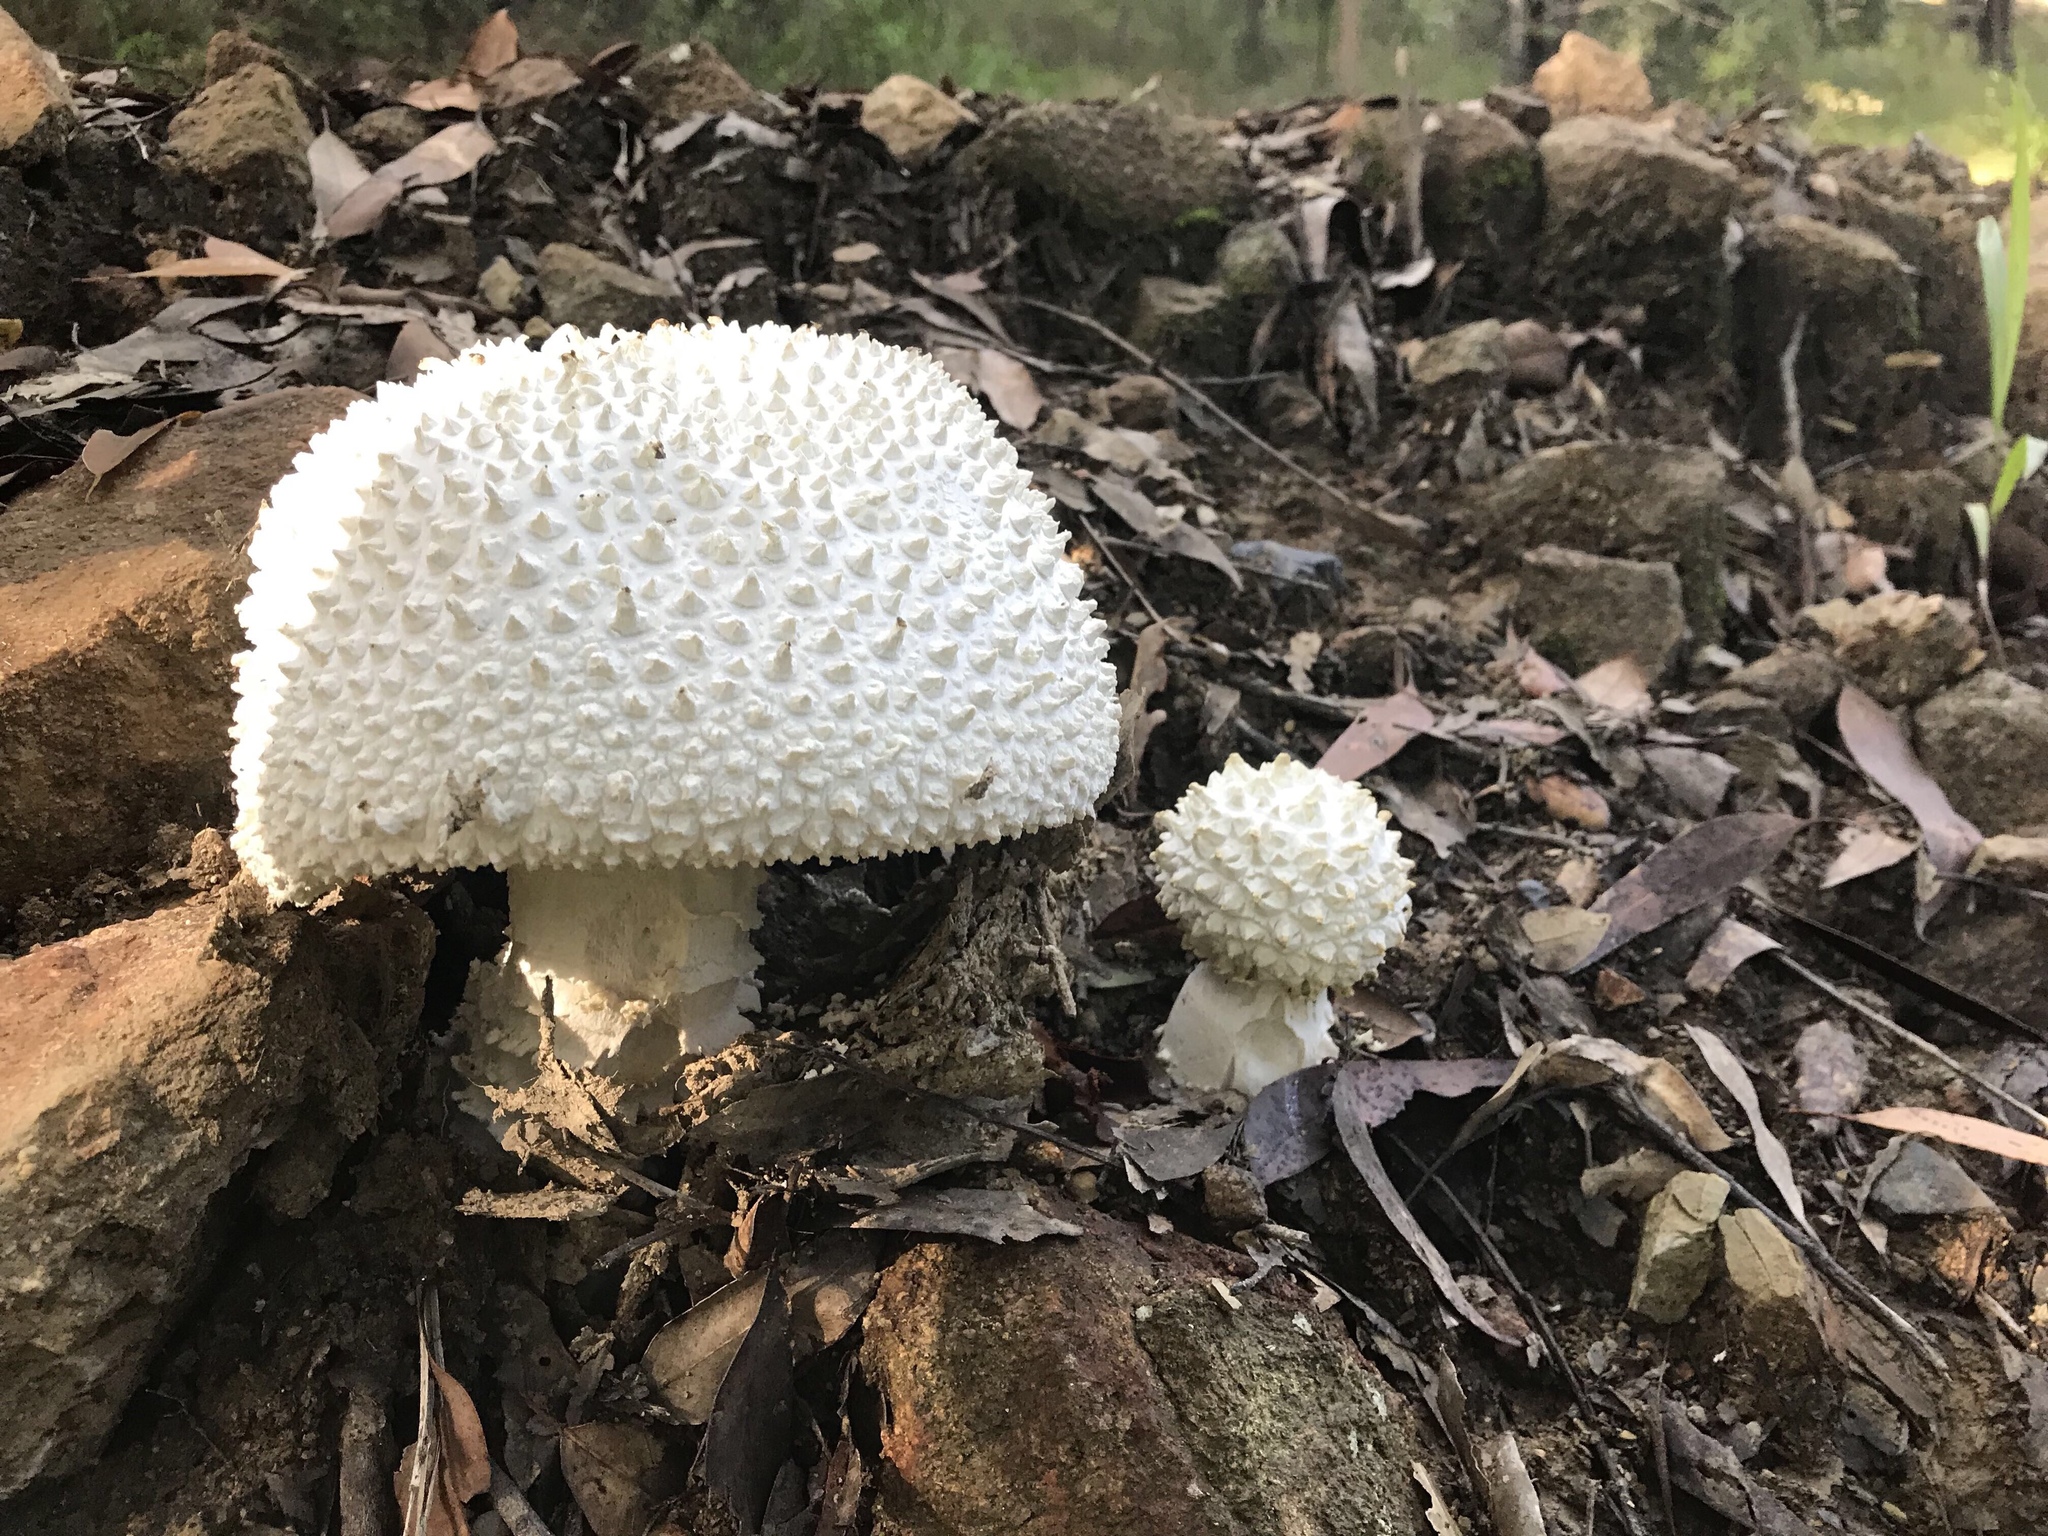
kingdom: Fungi
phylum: Basidiomycota
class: Agaricomycetes
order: Agaricales
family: Amanitaceae
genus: Amanita
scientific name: Amanita pyramidifera
